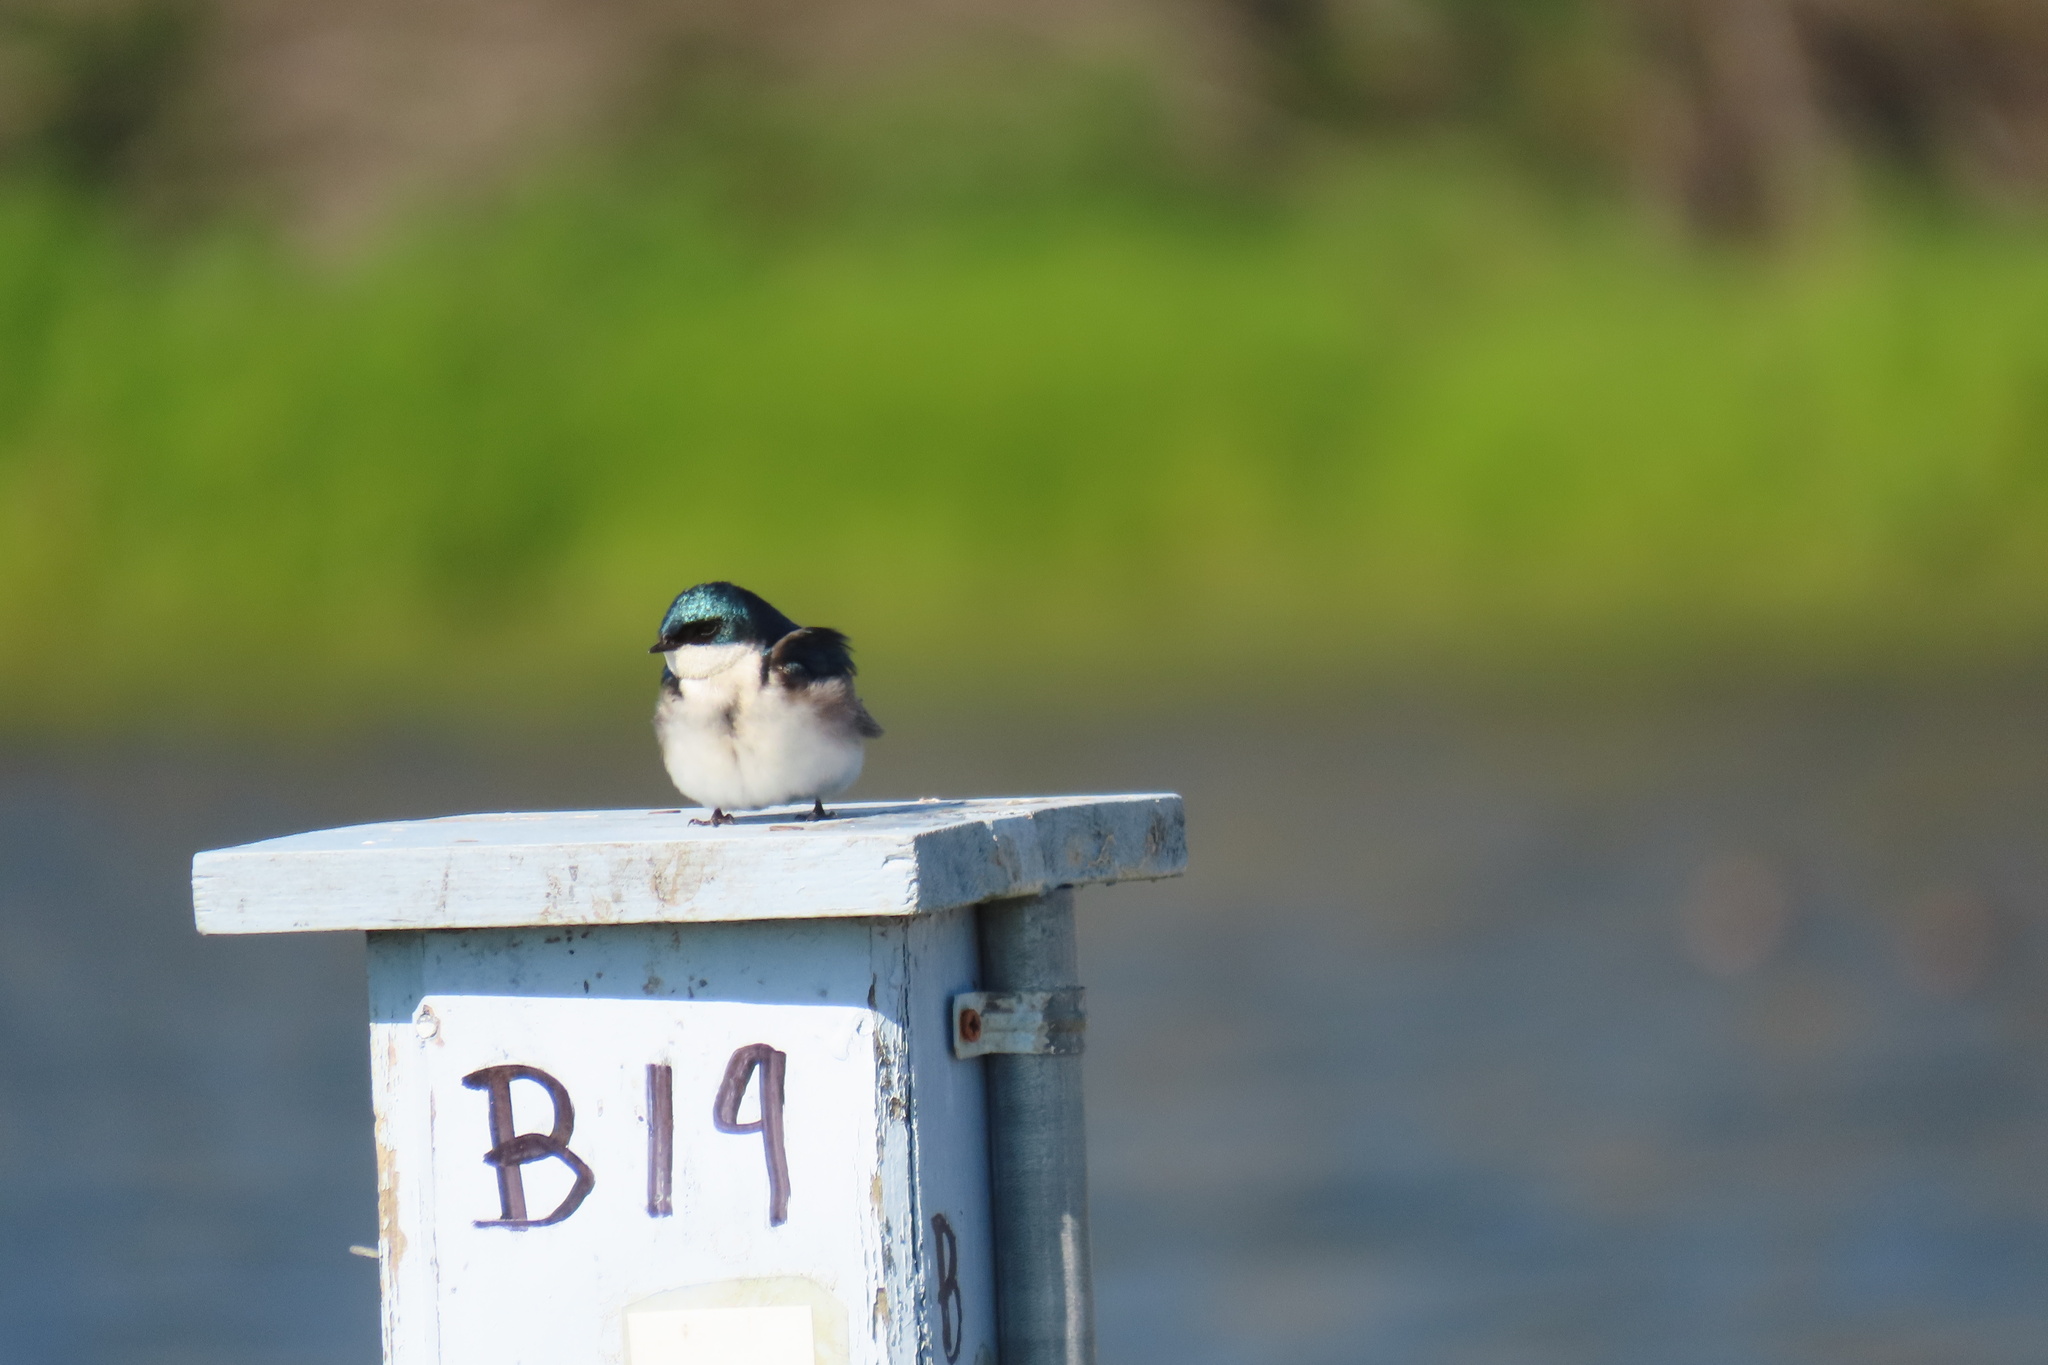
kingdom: Animalia
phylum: Chordata
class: Aves
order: Passeriformes
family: Hirundinidae
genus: Tachycineta
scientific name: Tachycineta bicolor
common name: Tree swallow
